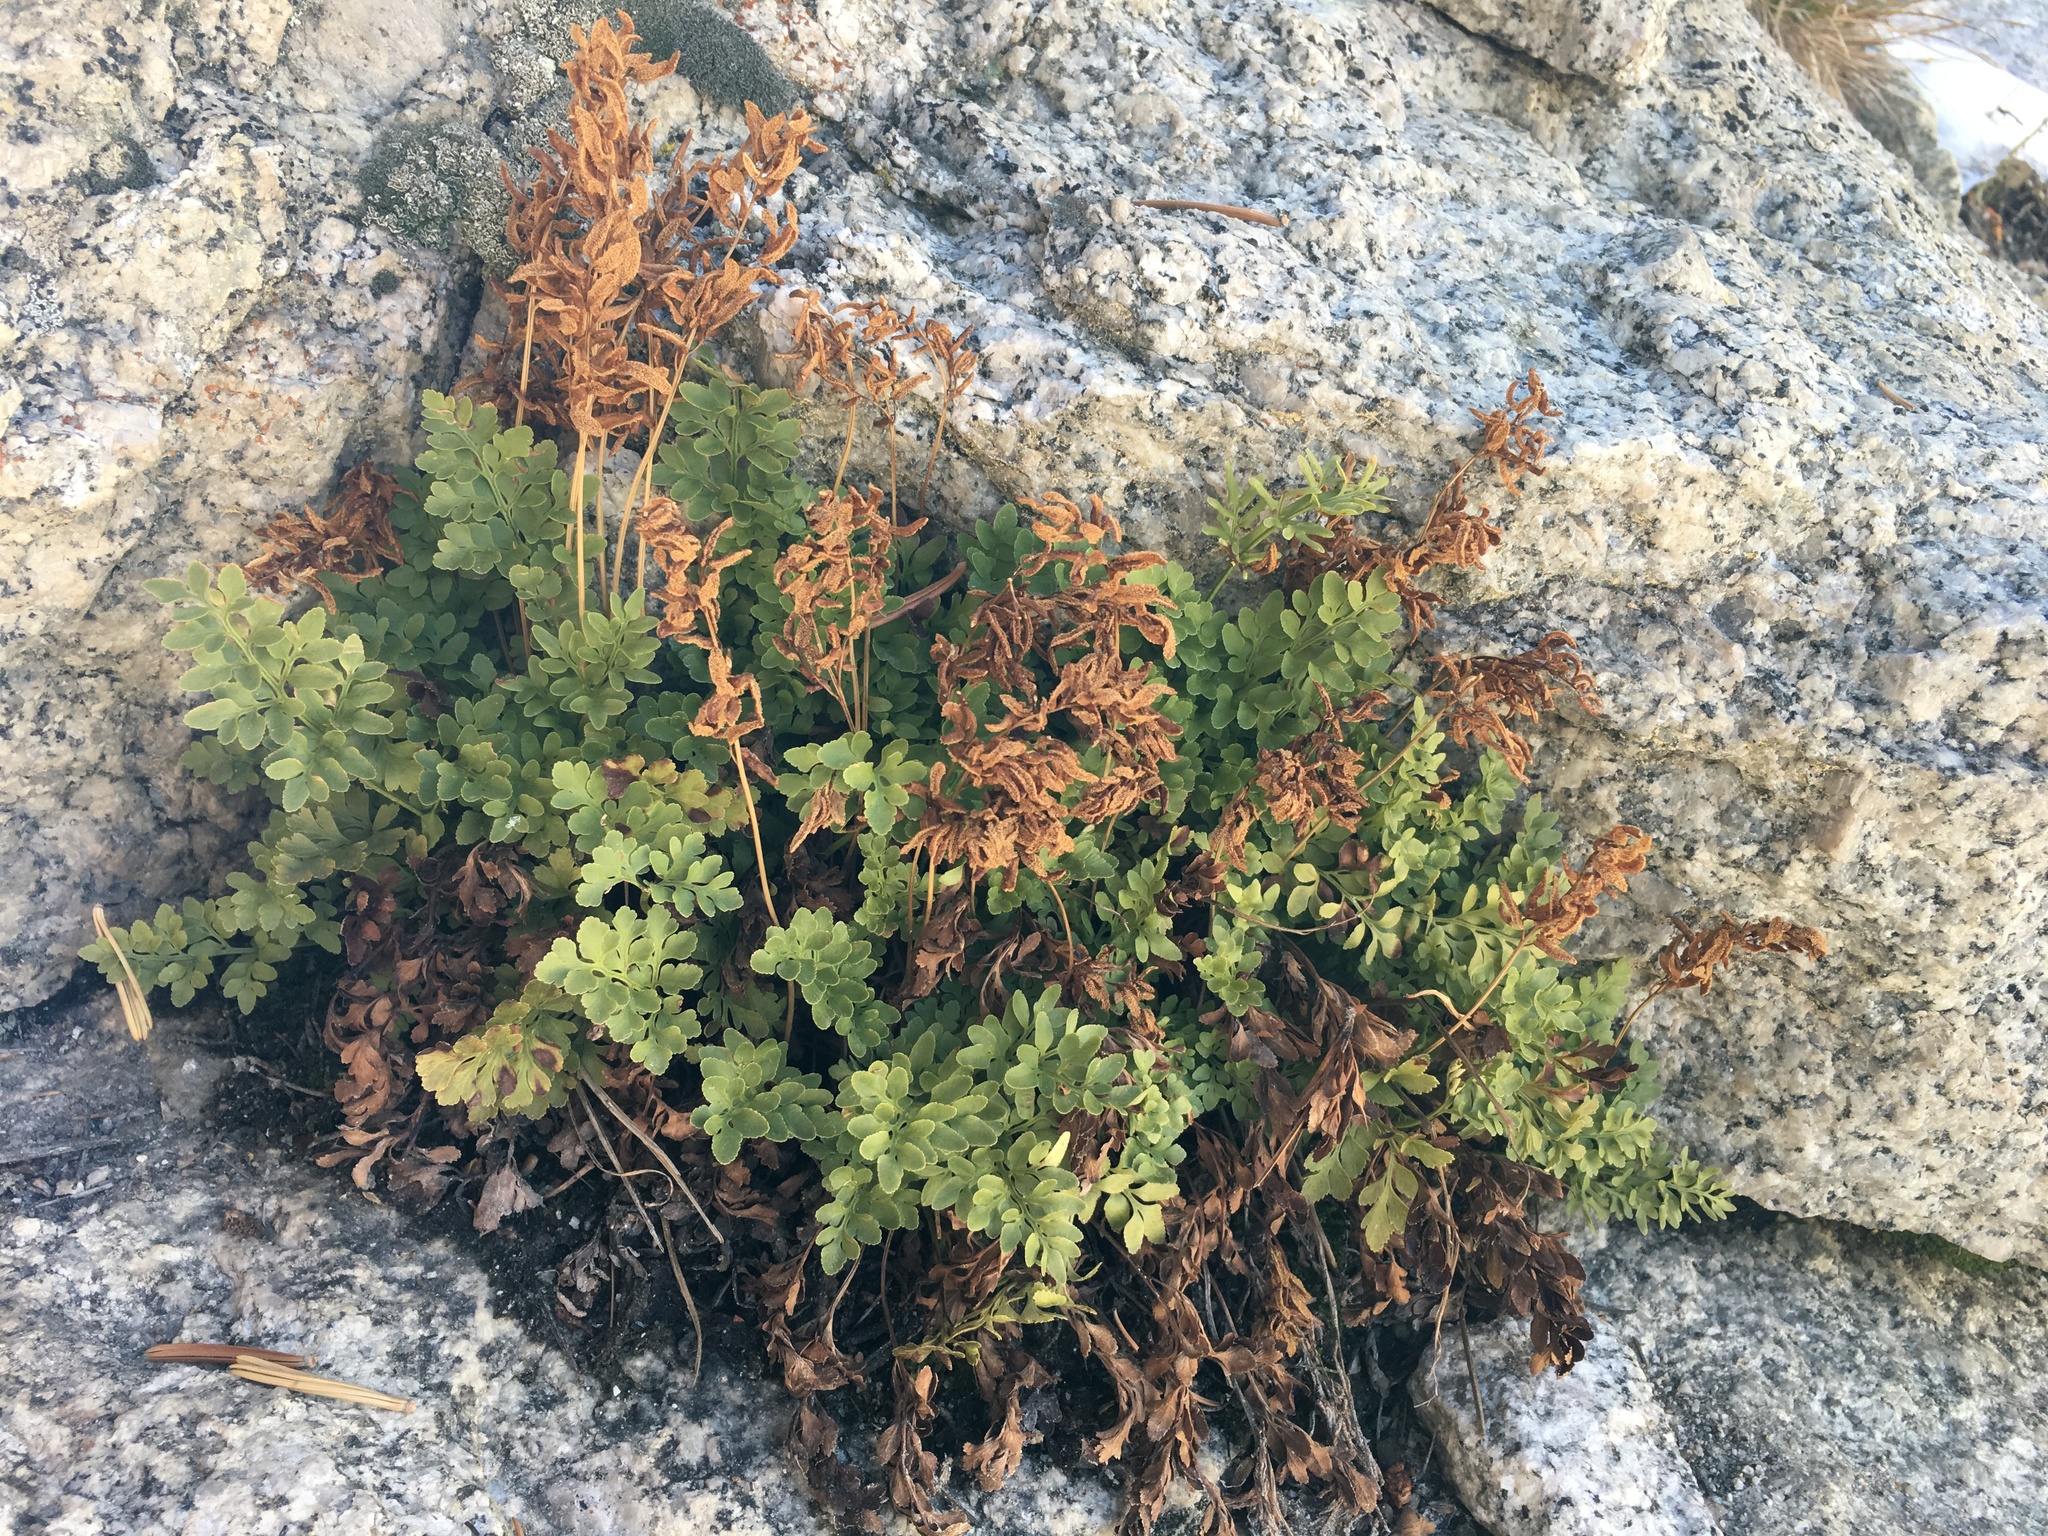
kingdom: Plantae
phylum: Tracheophyta
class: Polypodiopsida
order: Polypodiales
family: Pteridaceae
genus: Cryptogramma
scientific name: Cryptogramma acrostichoides
